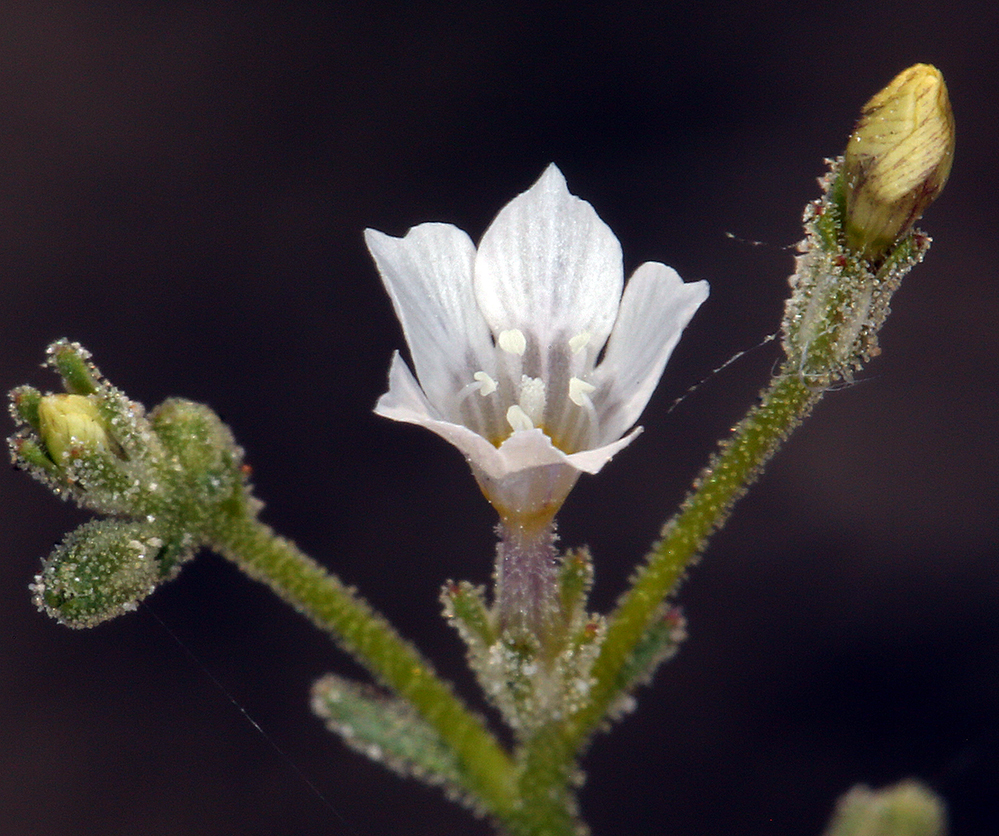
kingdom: Plantae
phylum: Tracheophyta
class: Magnoliopsida
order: Ericales
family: Polemoniaceae
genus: Aliciella
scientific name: Aliciella hutchinsifolia
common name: Desert pale gilia
